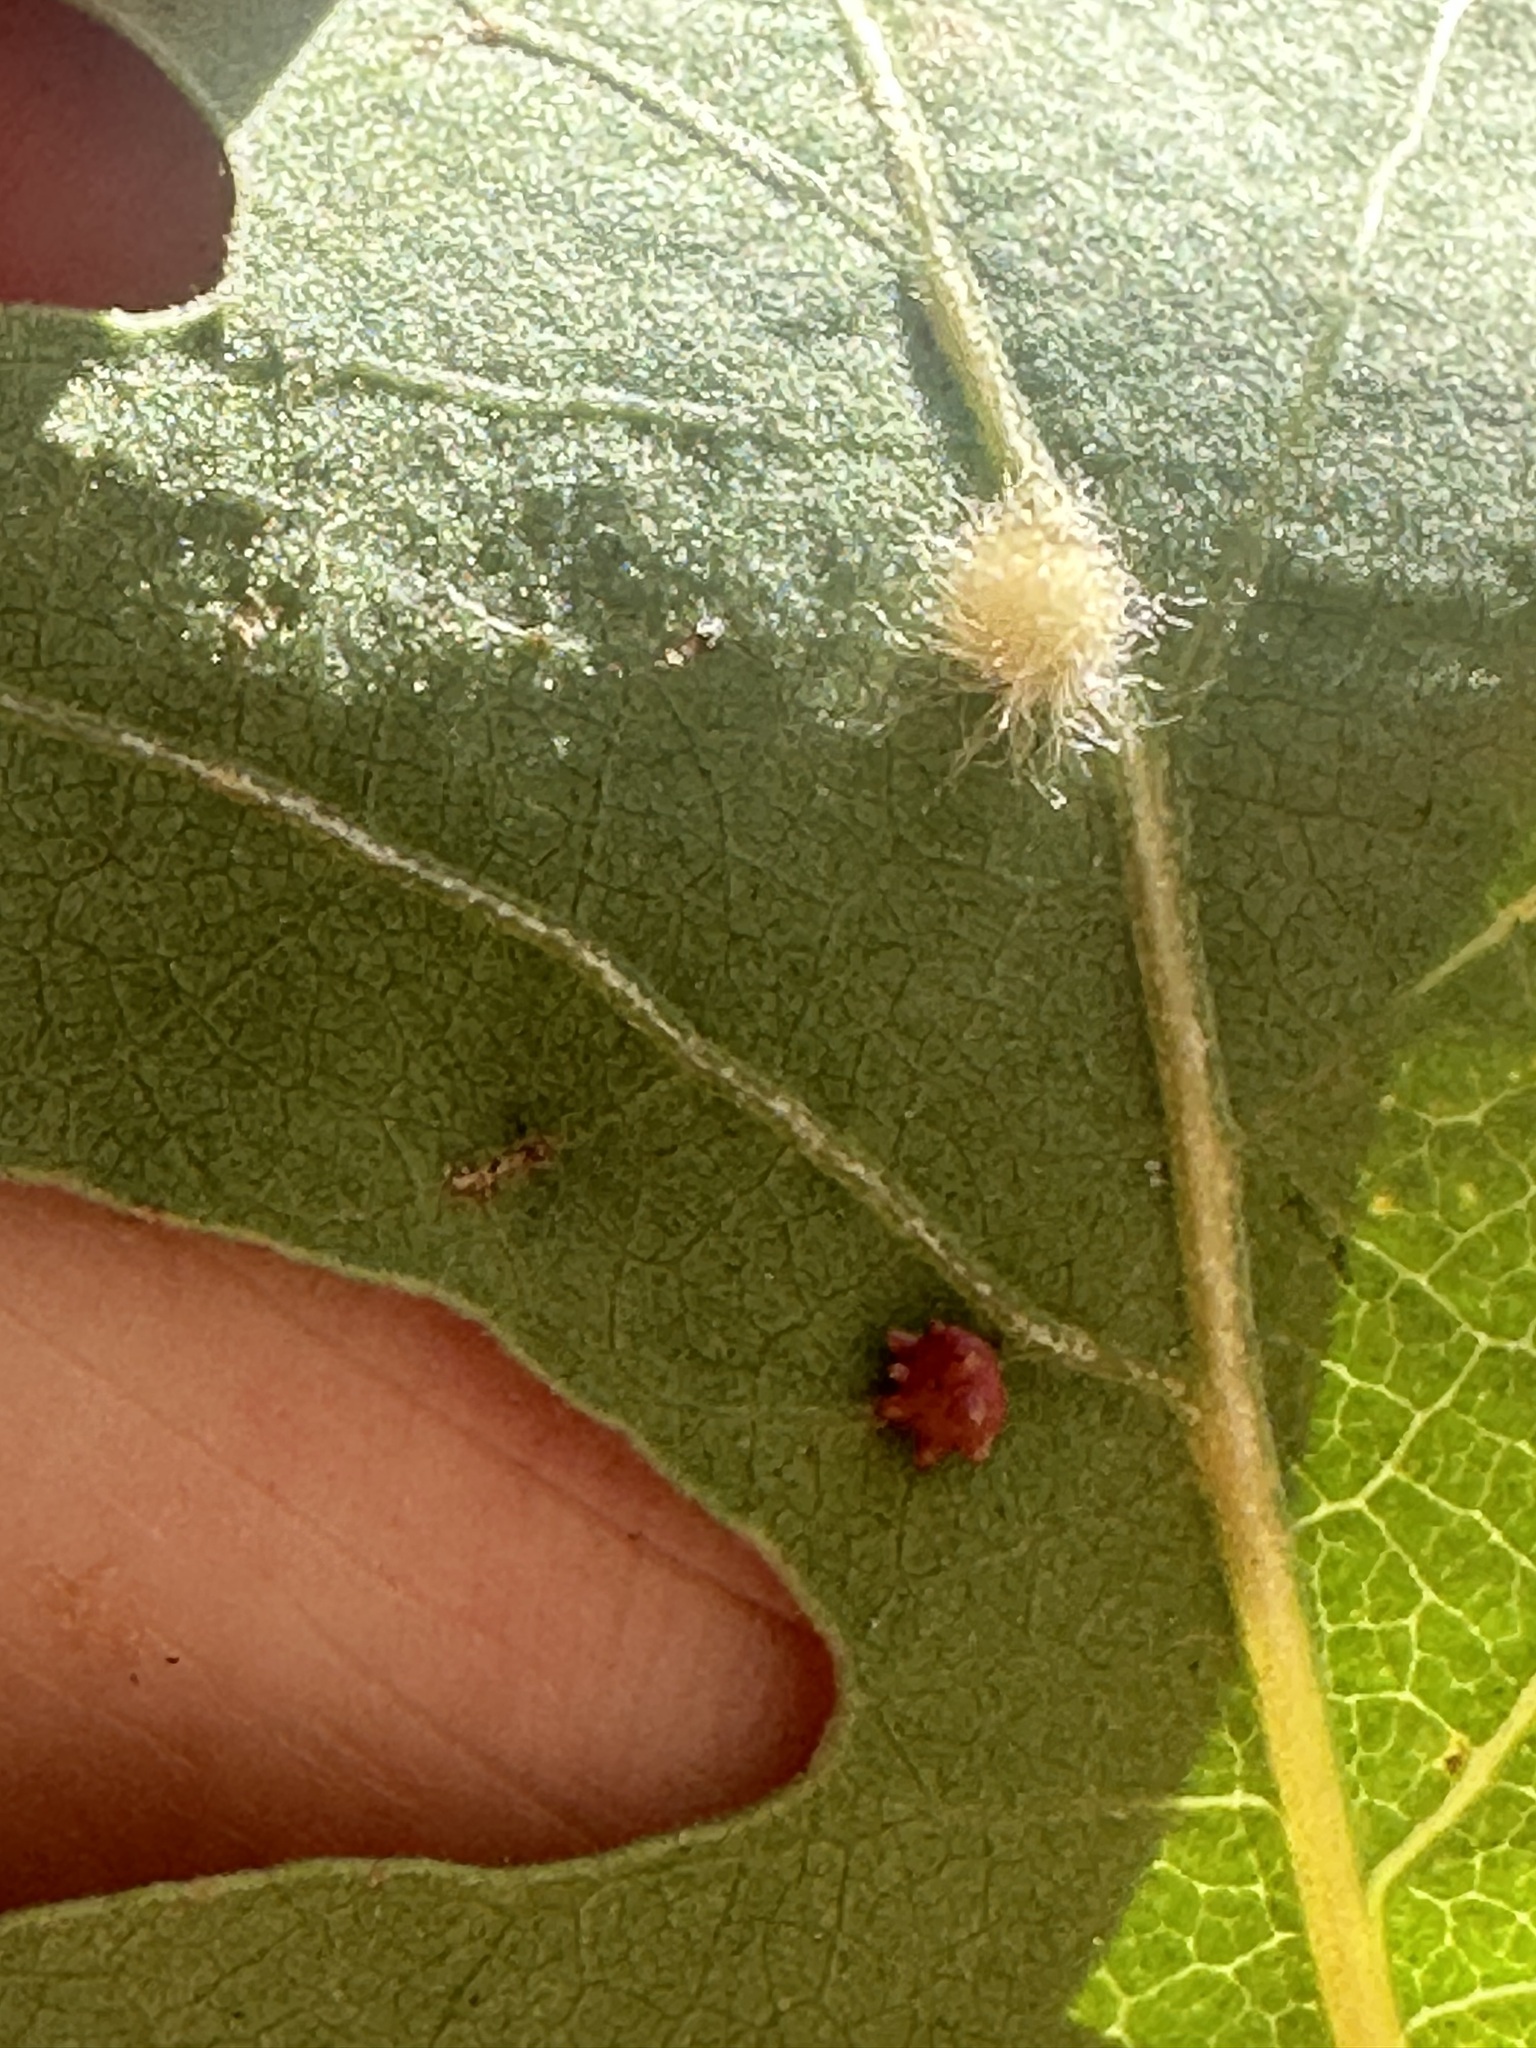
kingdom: Animalia
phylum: Arthropoda
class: Insecta
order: Hymenoptera
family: Cynipidae
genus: Andricus
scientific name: Andricus Druon fullawayi
